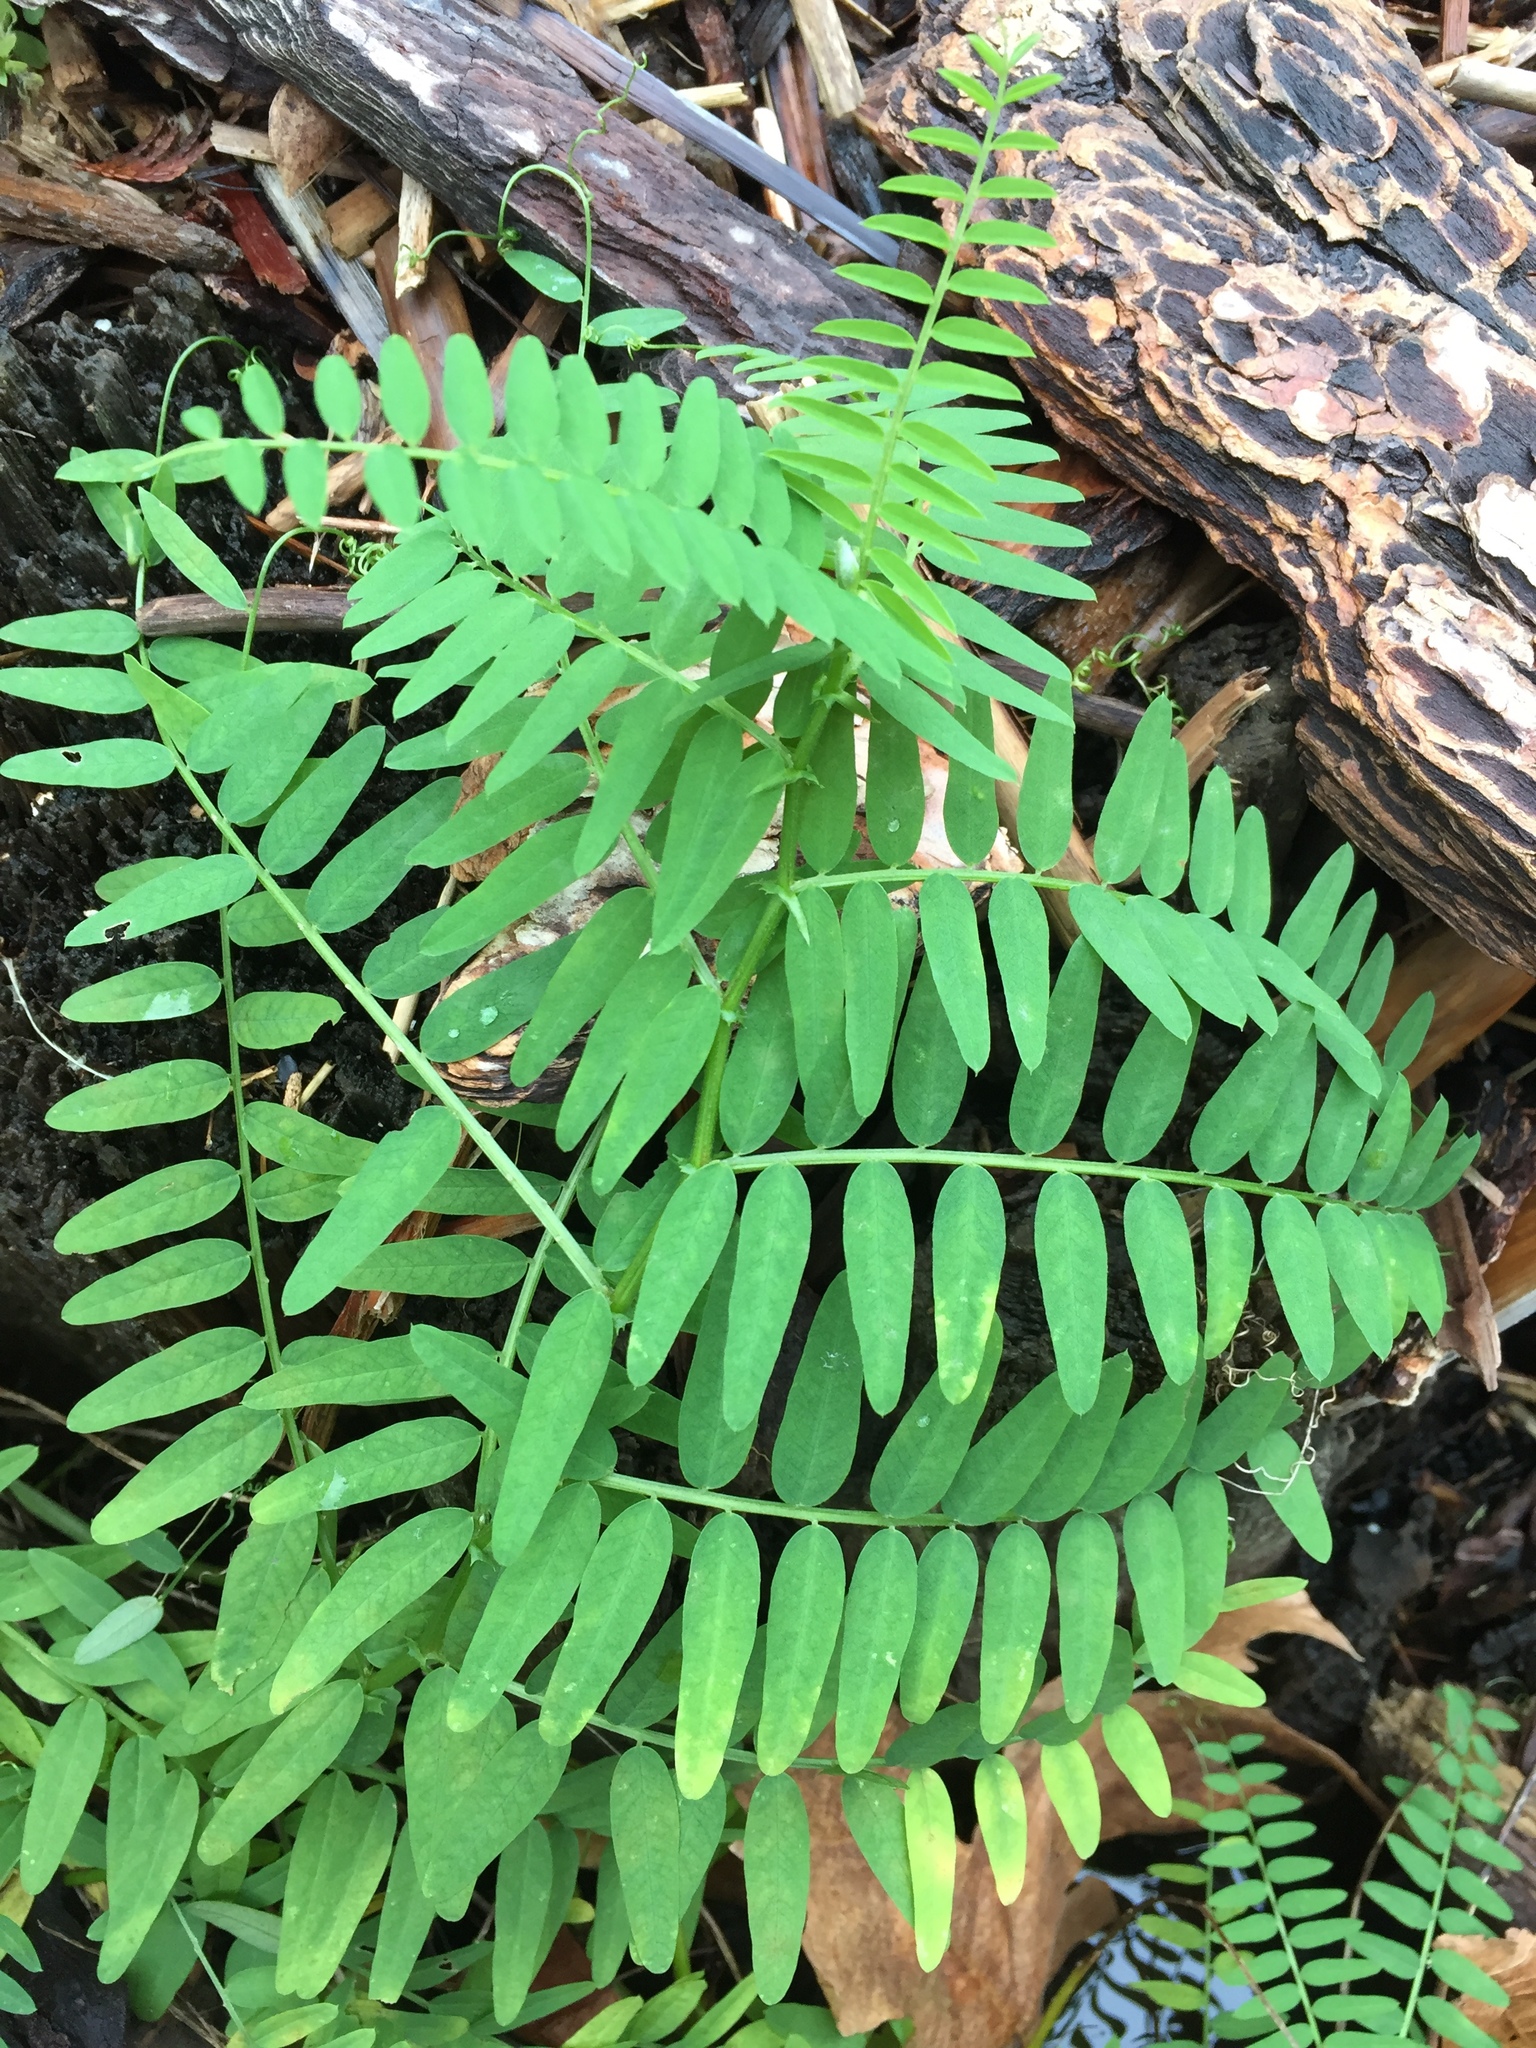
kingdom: Plantae
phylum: Tracheophyta
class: Magnoliopsida
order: Fabales
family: Fabaceae
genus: Vicia
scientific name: Vicia
